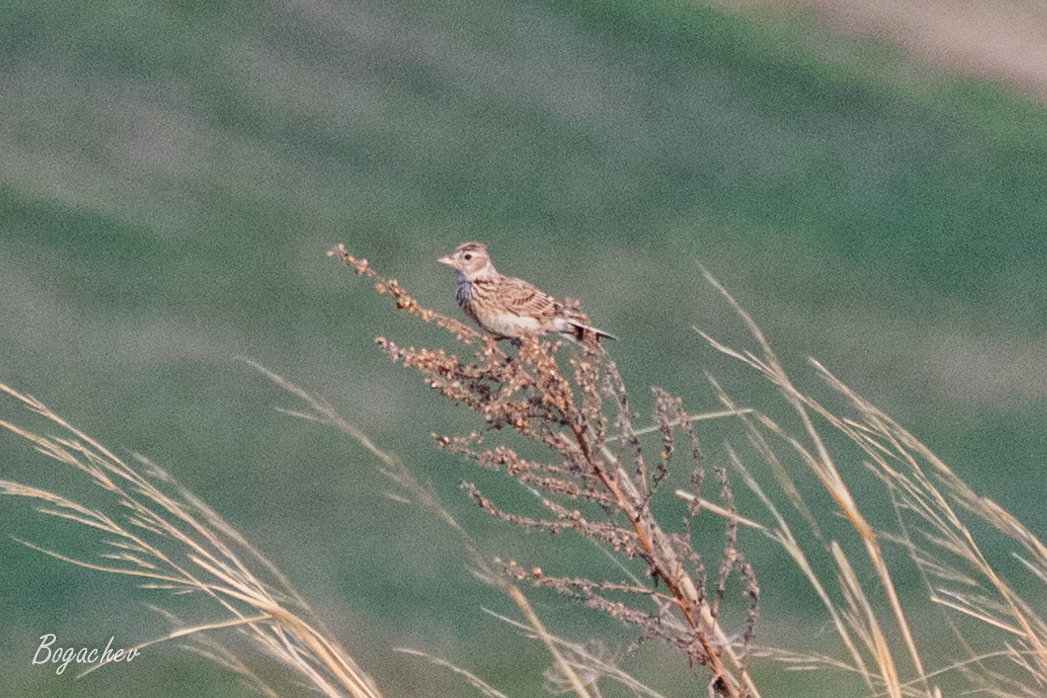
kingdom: Animalia
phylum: Chordata
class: Aves
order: Passeriformes
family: Alaudidae
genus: Alauda
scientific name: Alauda arvensis
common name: Eurasian skylark
